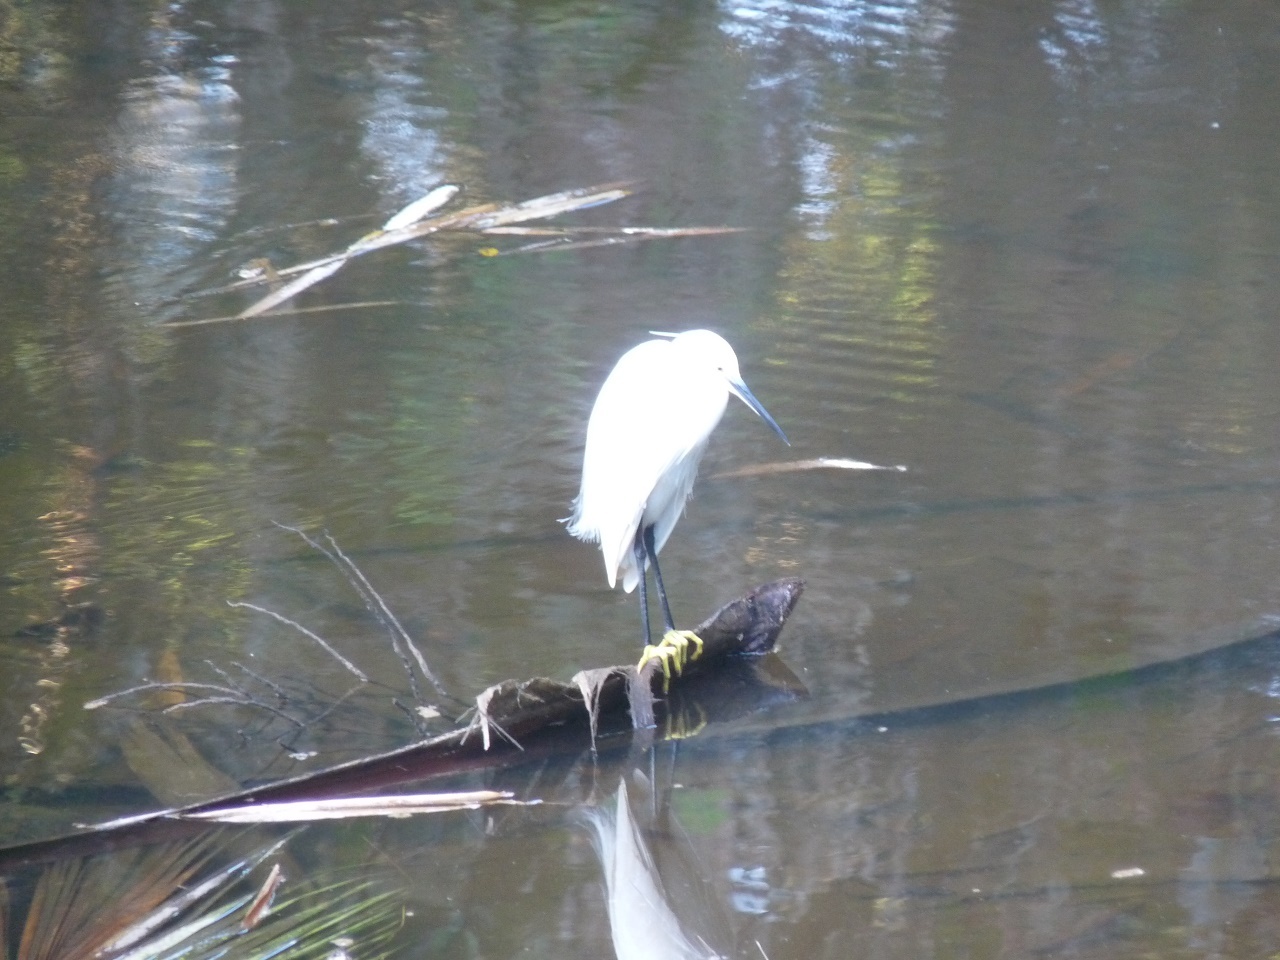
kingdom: Animalia
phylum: Chordata
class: Aves
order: Pelecaniformes
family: Ardeidae
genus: Egretta
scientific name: Egretta garzetta
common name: Little egret
